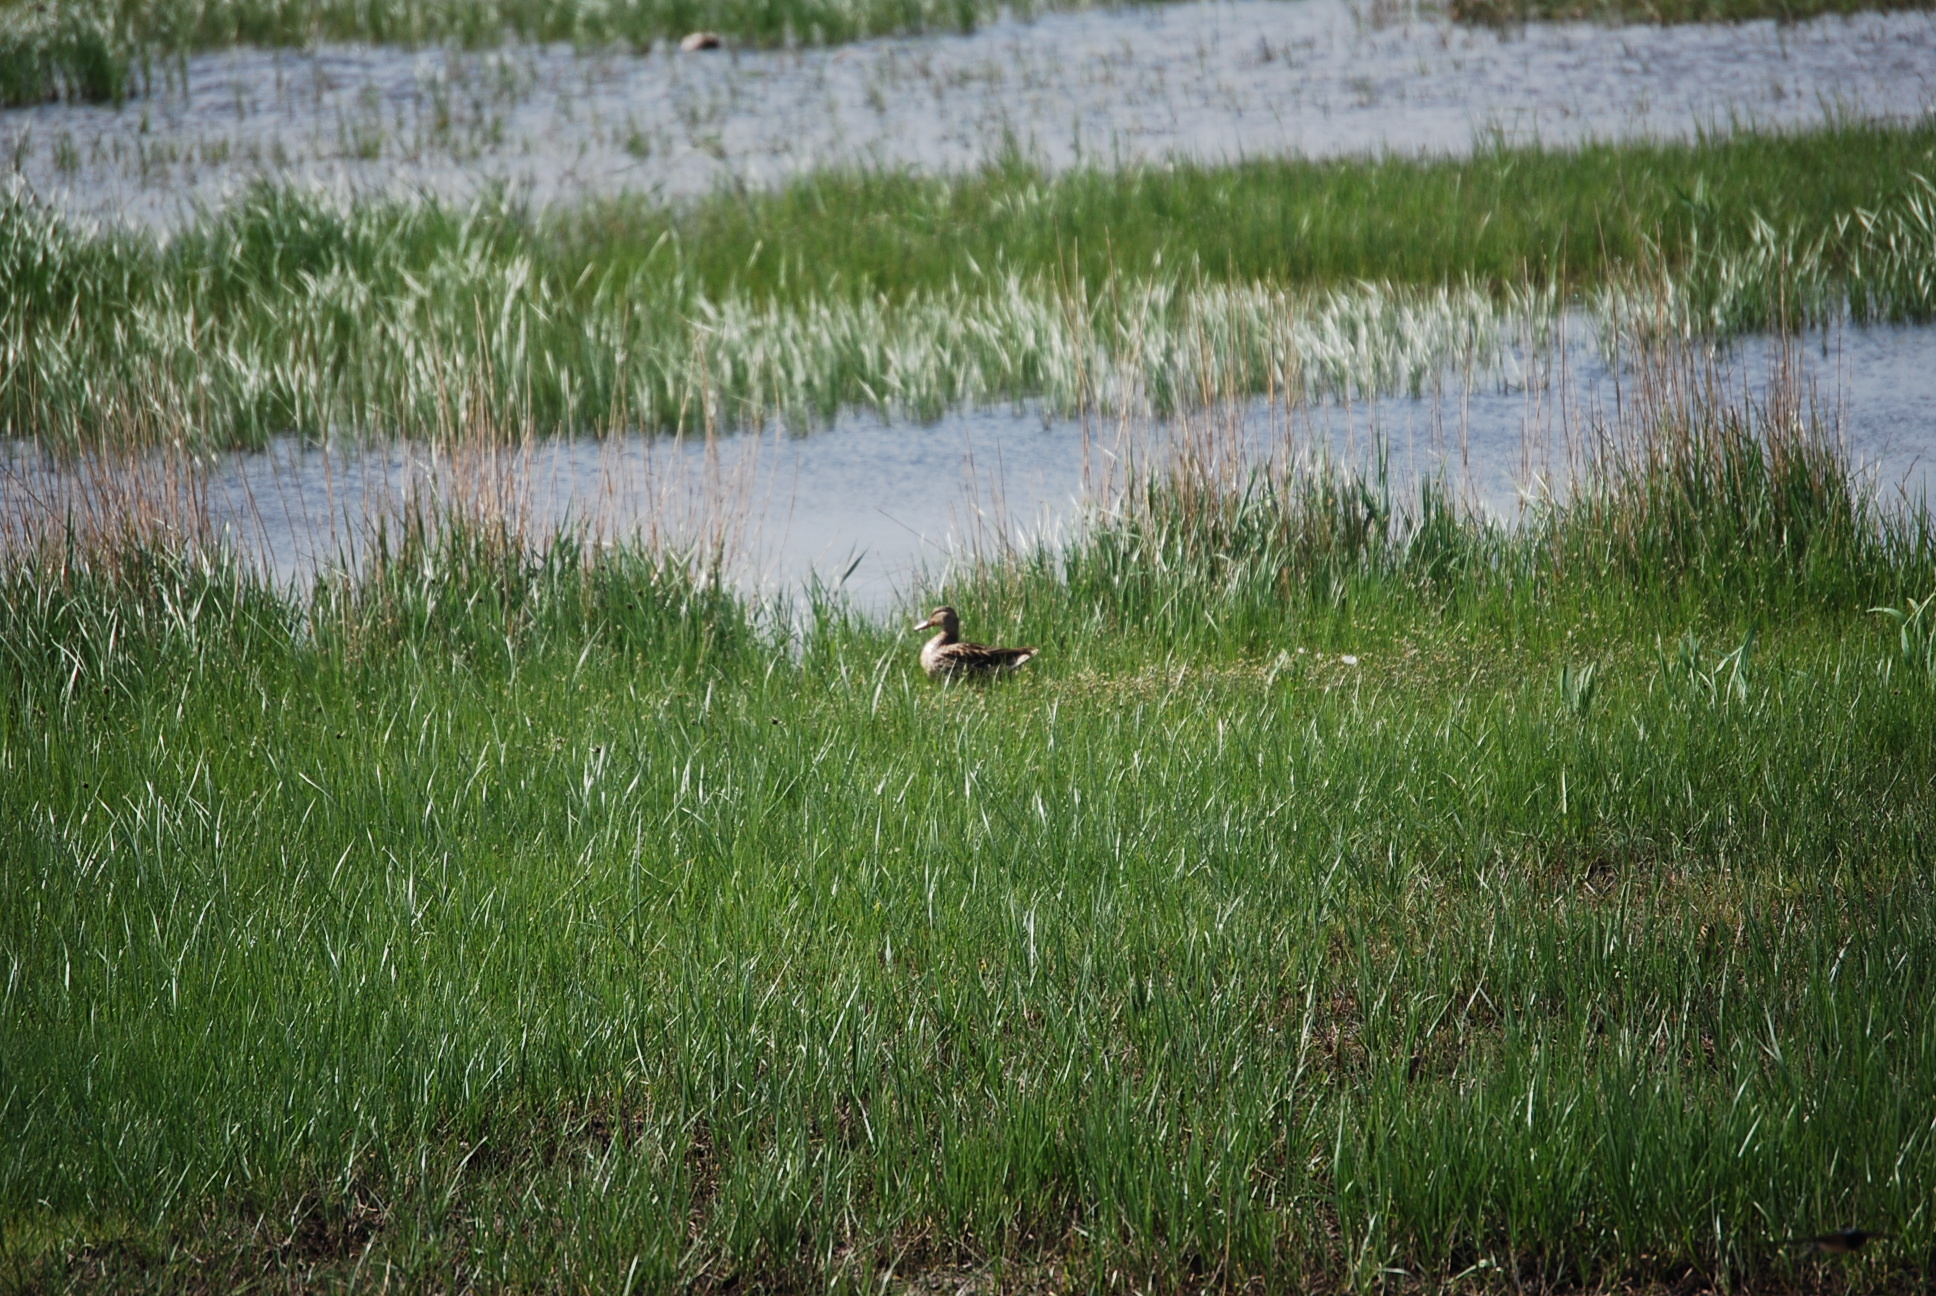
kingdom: Animalia
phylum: Chordata
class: Aves
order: Anseriformes
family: Anatidae
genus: Anas
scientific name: Anas platyrhynchos
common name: Mallard
